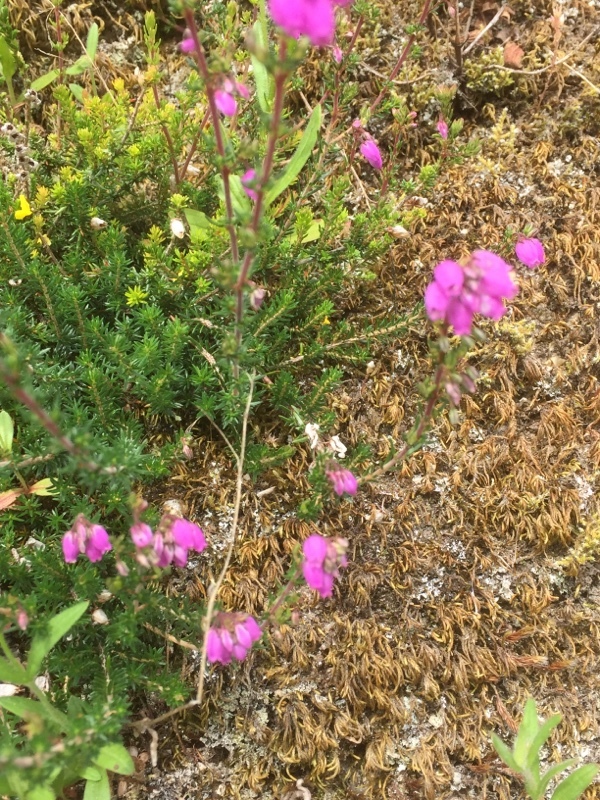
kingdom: Plantae
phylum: Tracheophyta
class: Magnoliopsida
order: Ericales
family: Ericaceae
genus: Erica
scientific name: Erica cinerea
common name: Bell heather
